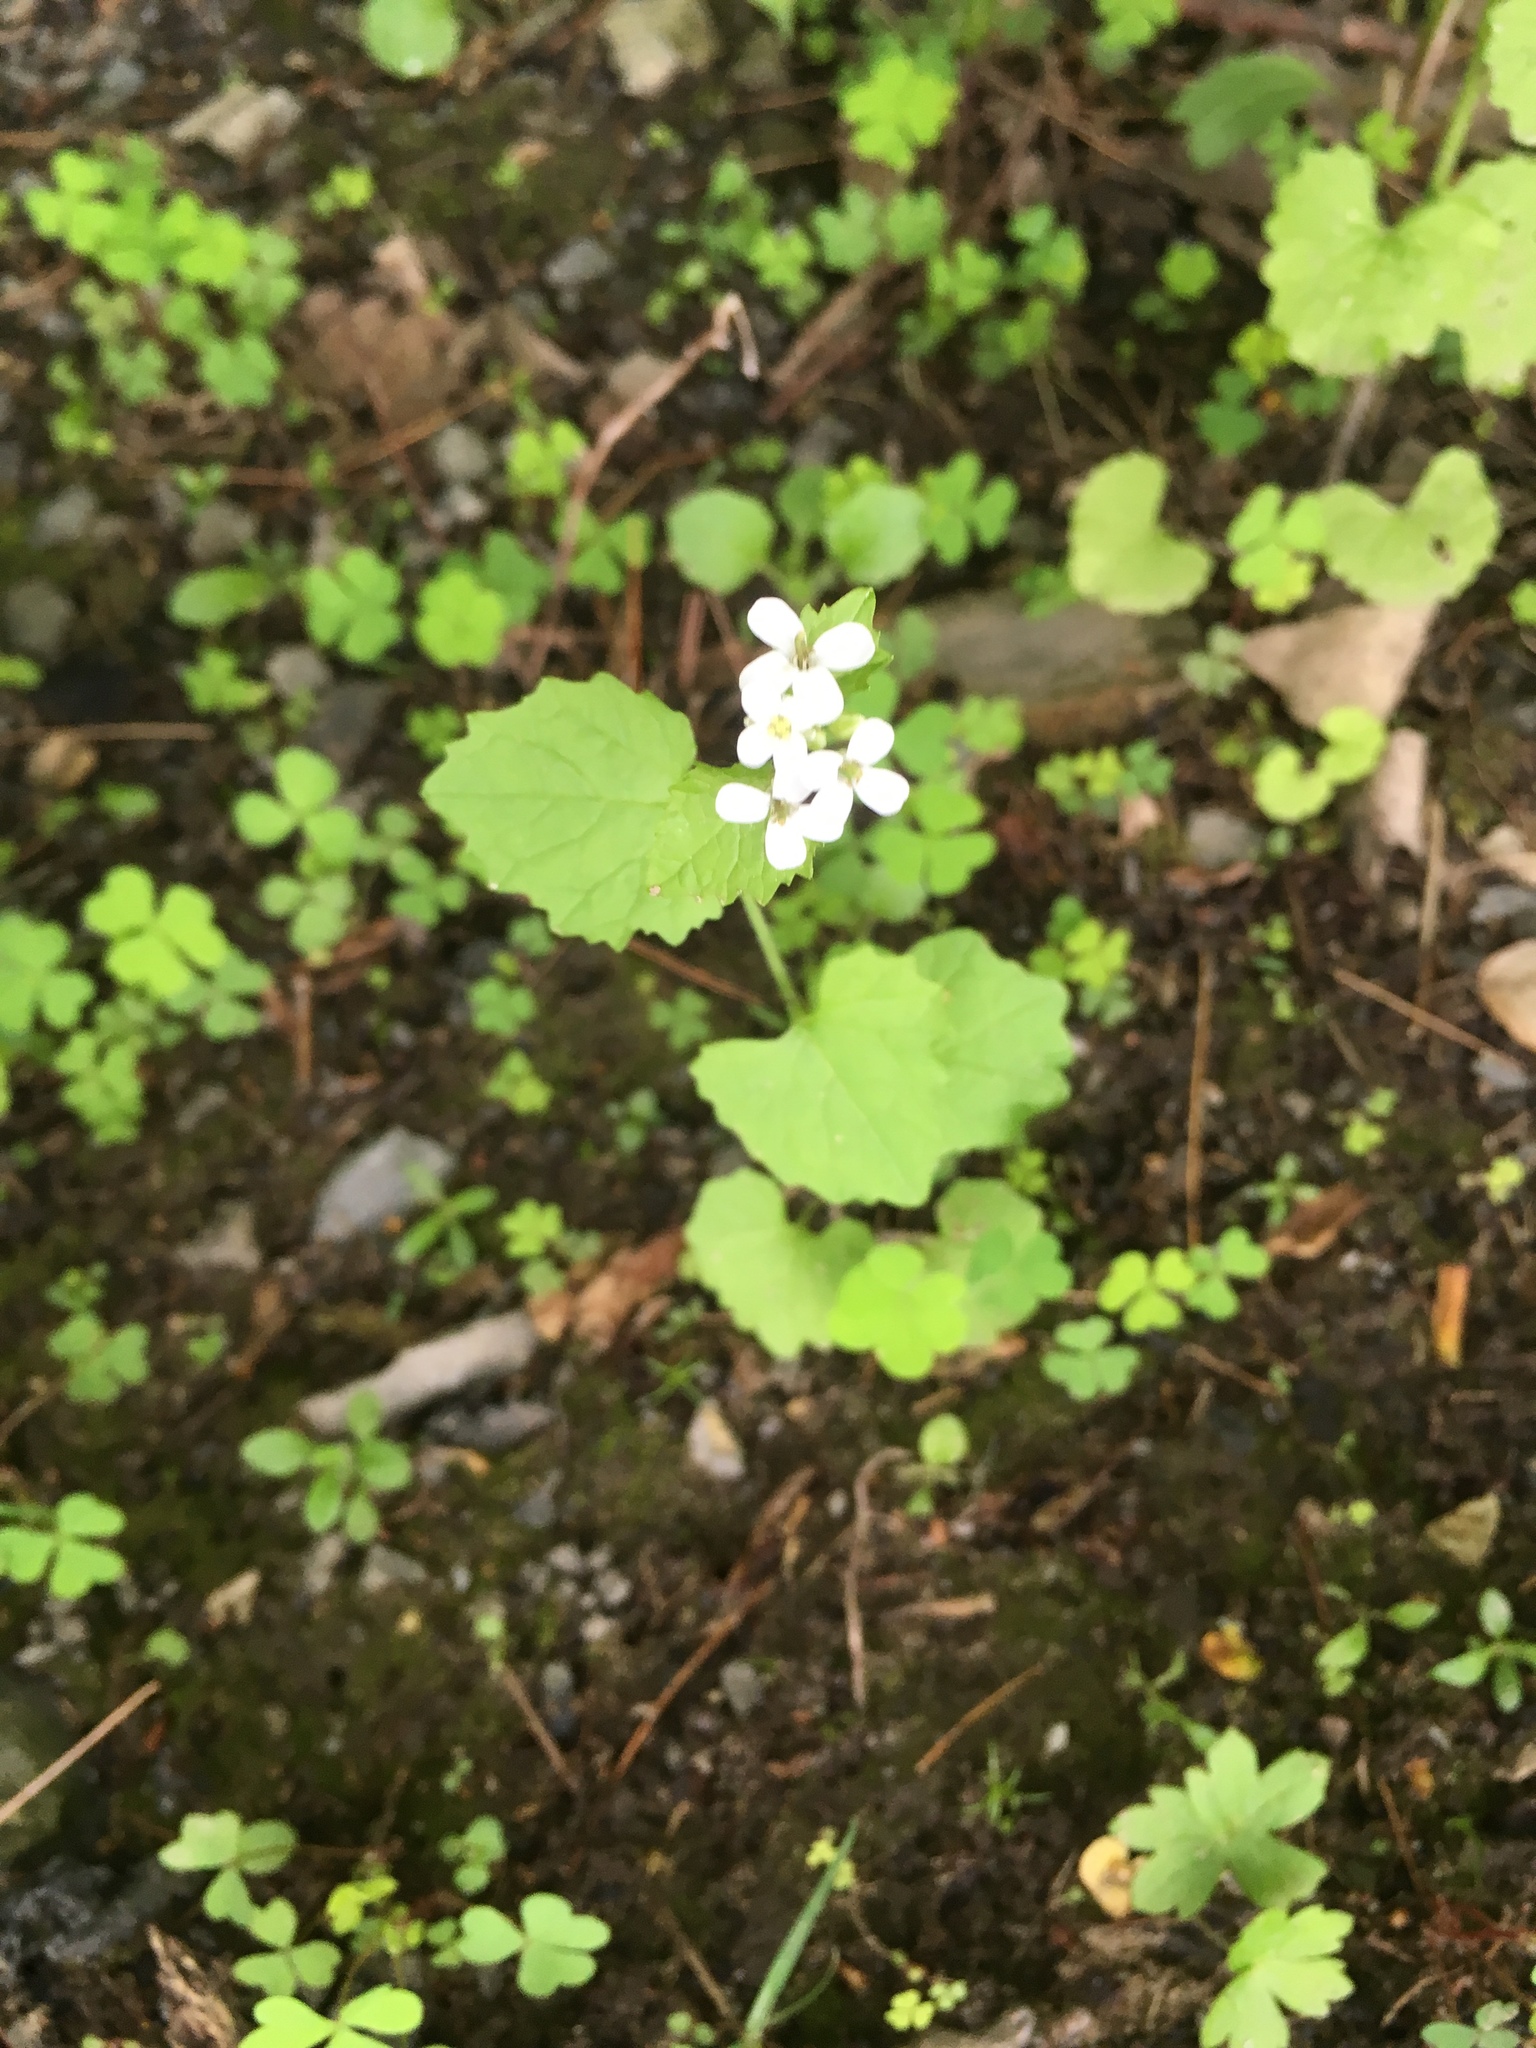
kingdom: Plantae
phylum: Tracheophyta
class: Magnoliopsida
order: Brassicales
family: Brassicaceae
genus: Alliaria
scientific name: Alliaria petiolata
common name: Garlic mustard
